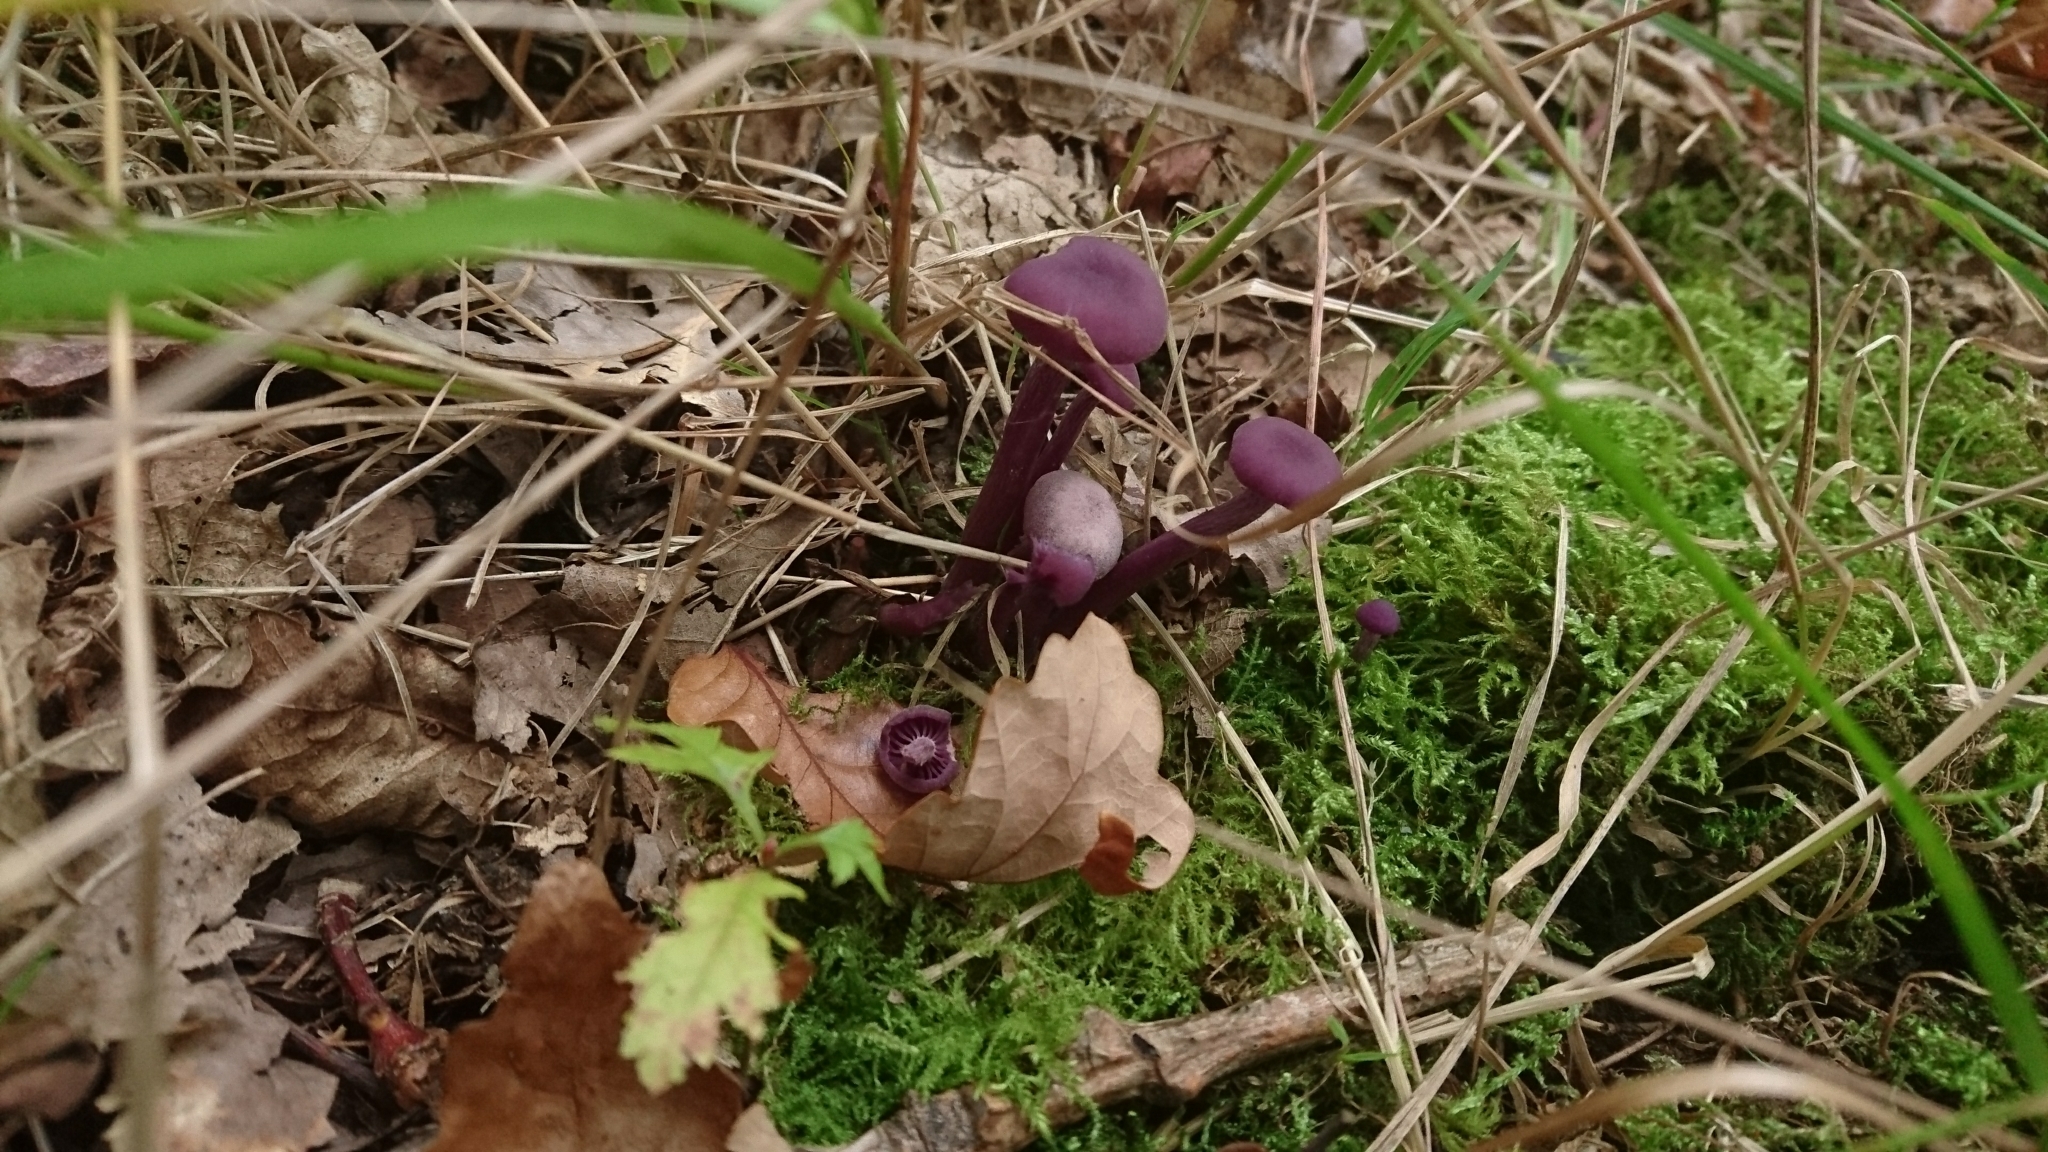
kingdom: Fungi
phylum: Basidiomycota
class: Agaricomycetes
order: Agaricales
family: Hydnangiaceae
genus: Laccaria
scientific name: Laccaria amethystina
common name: Amethyst deceiver
